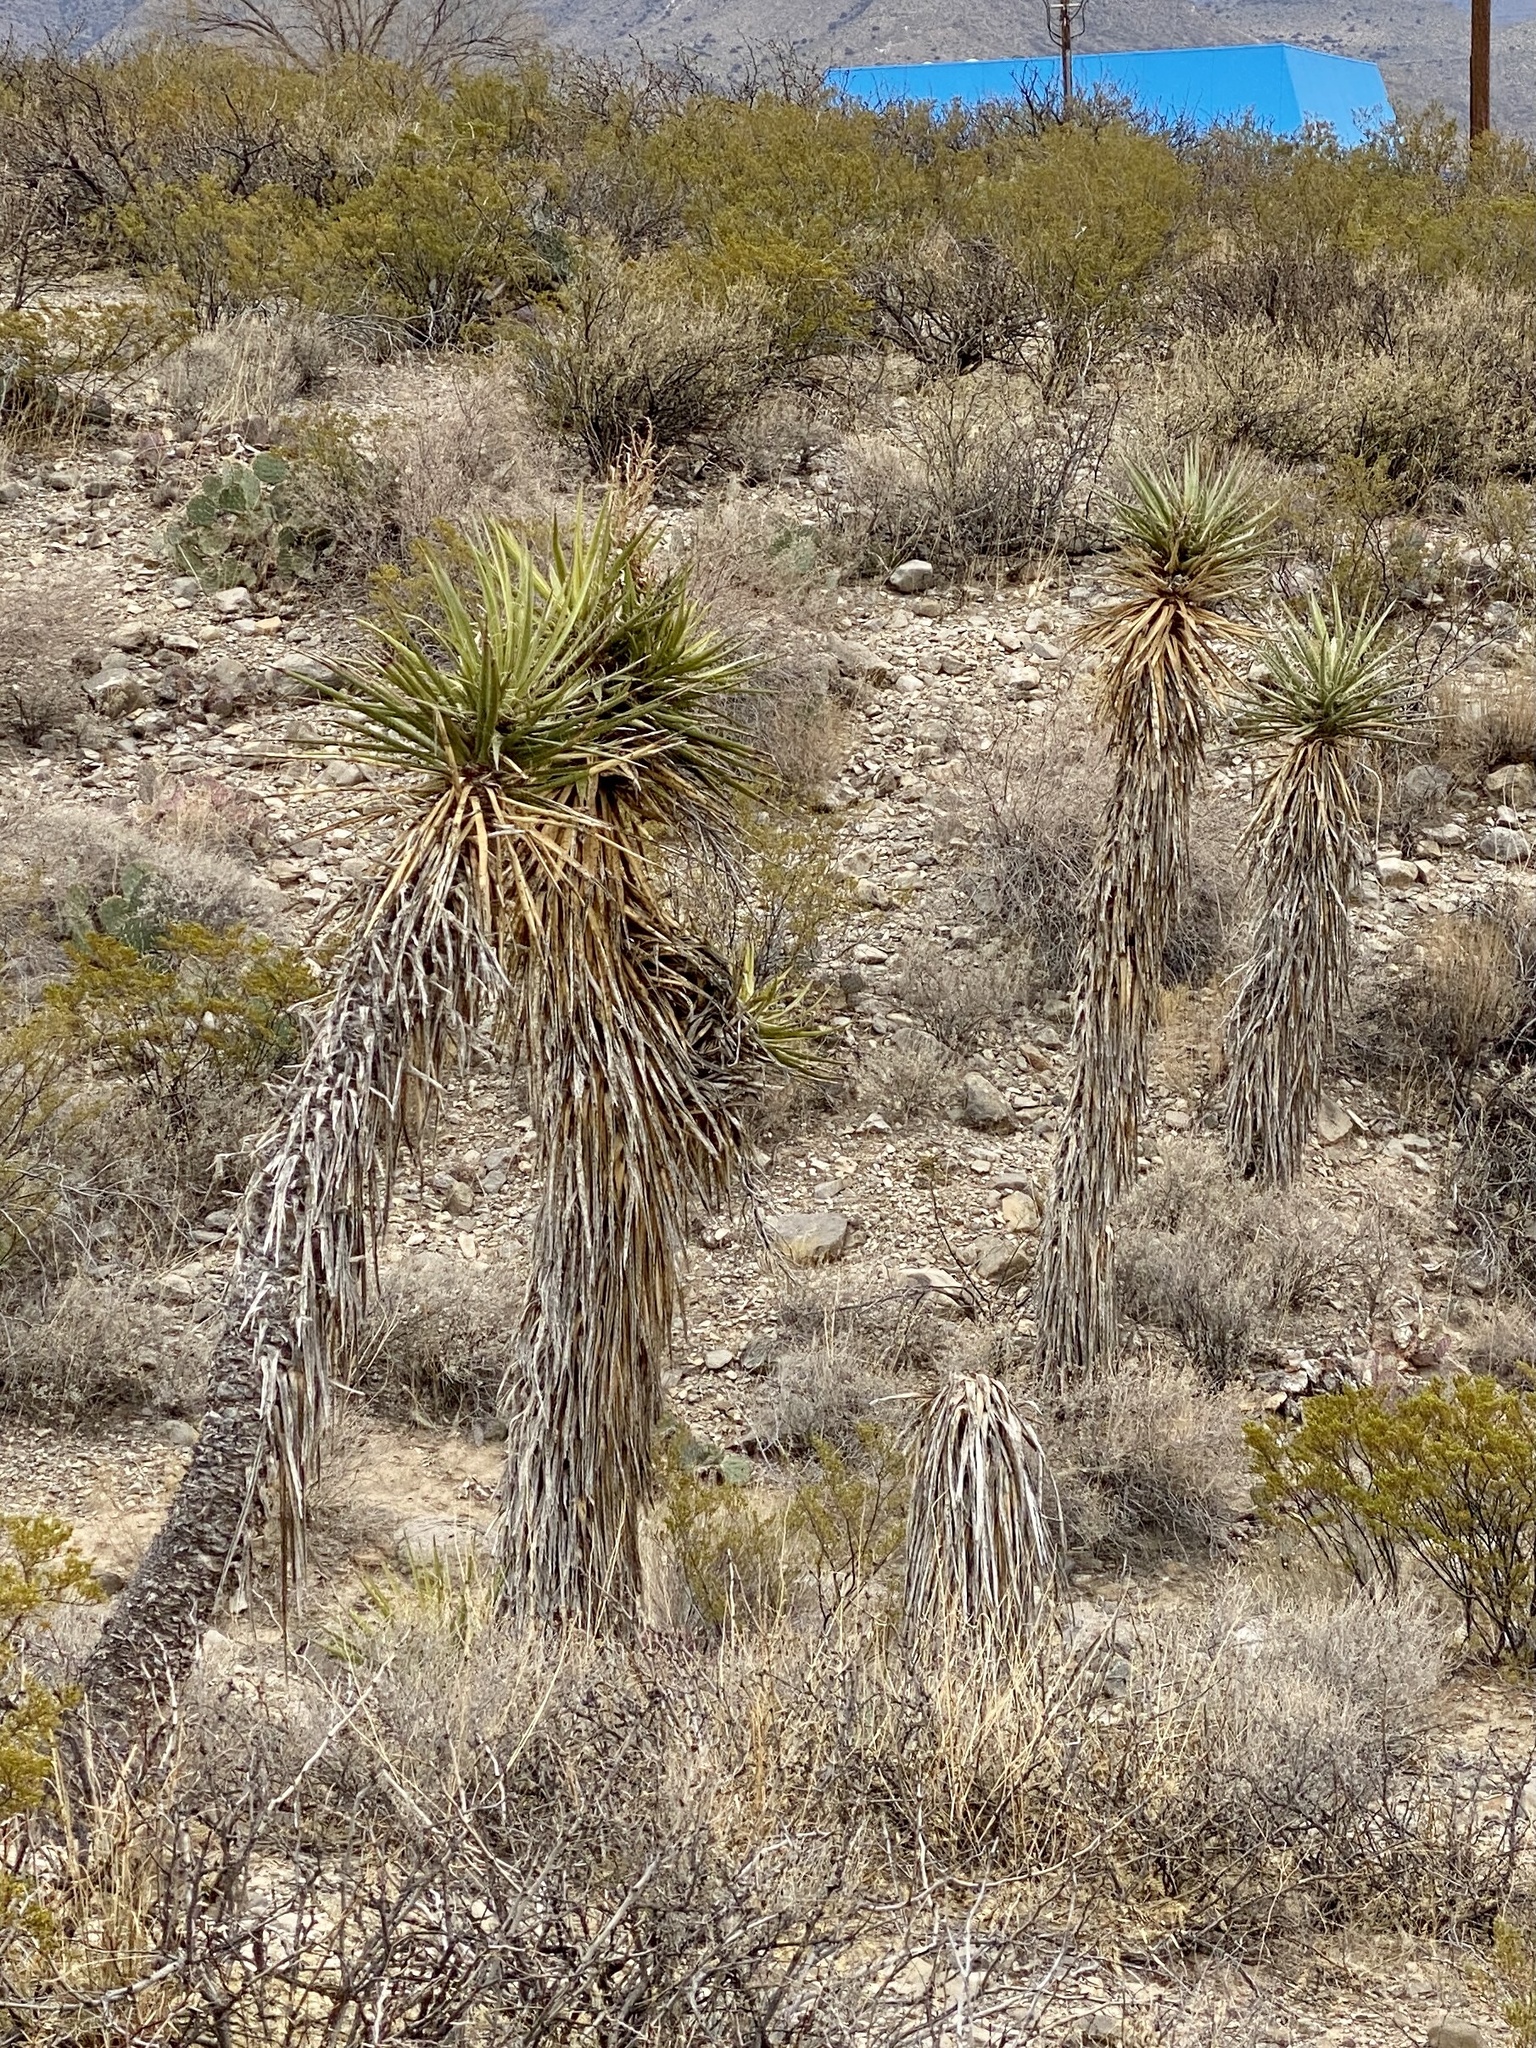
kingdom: Plantae
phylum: Tracheophyta
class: Liliopsida
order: Asparagales
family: Asparagaceae
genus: Yucca
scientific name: Yucca treculiana
